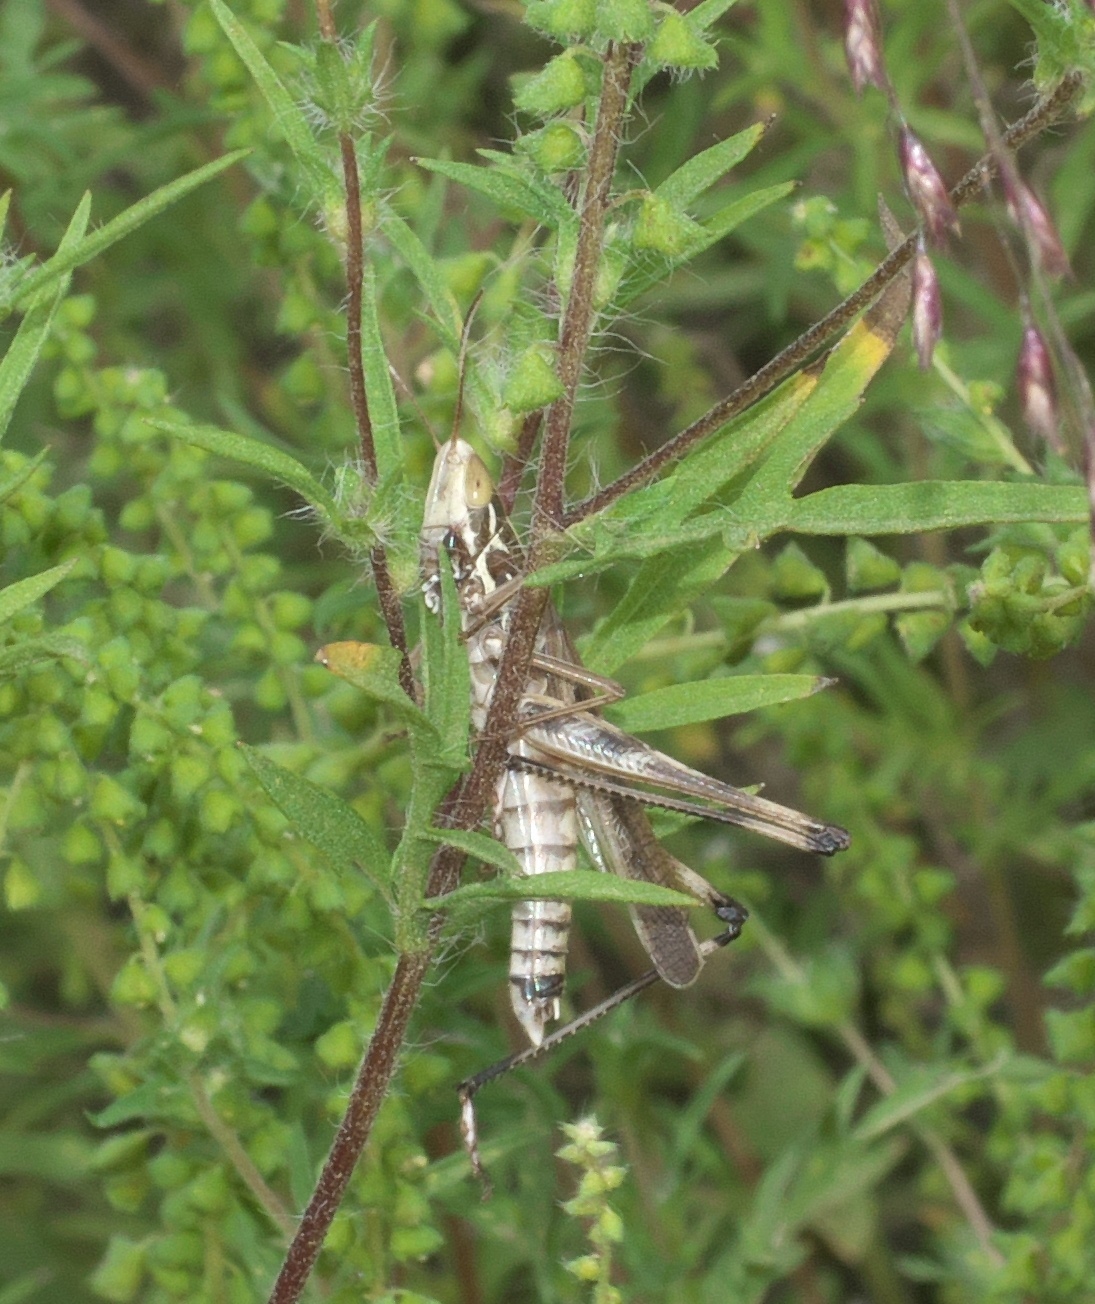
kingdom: Animalia
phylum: Arthropoda
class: Insecta
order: Orthoptera
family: Acrididae
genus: Syrbula
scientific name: Syrbula admirabilis
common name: Handsome grasshopper
